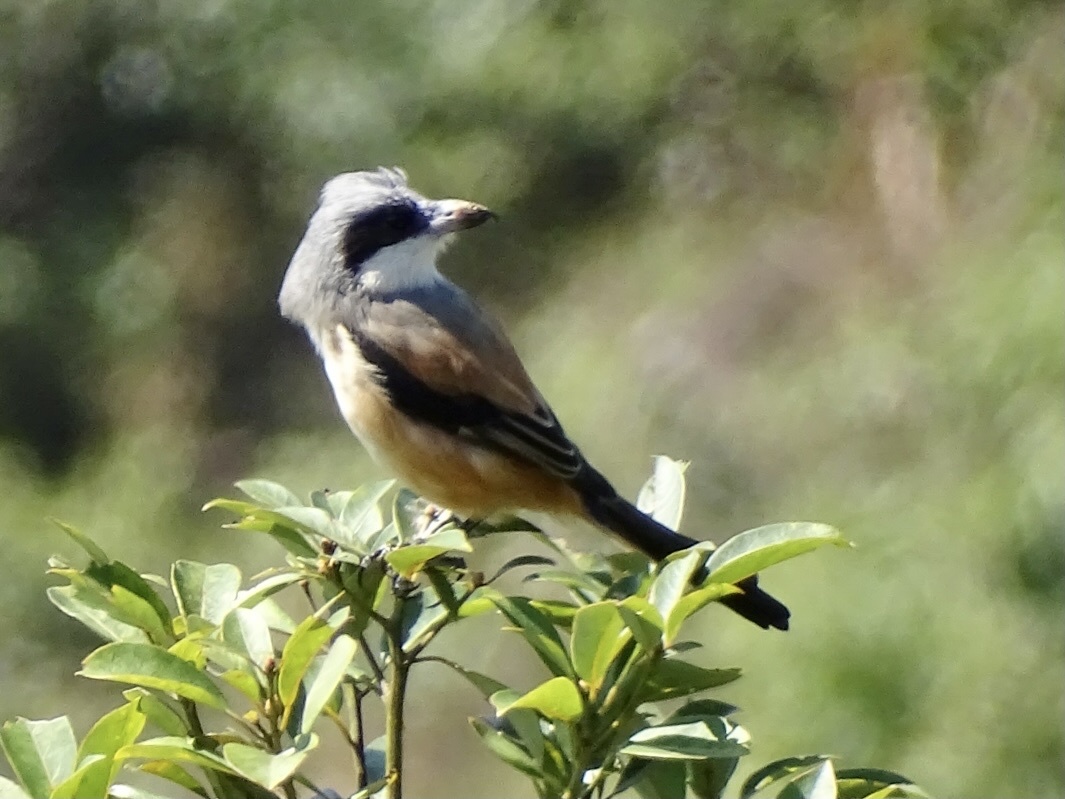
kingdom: Animalia
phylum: Chordata
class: Aves
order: Passeriformes
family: Laniidae
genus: Lanius
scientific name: Lanius schach
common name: Long-tailed shrike
